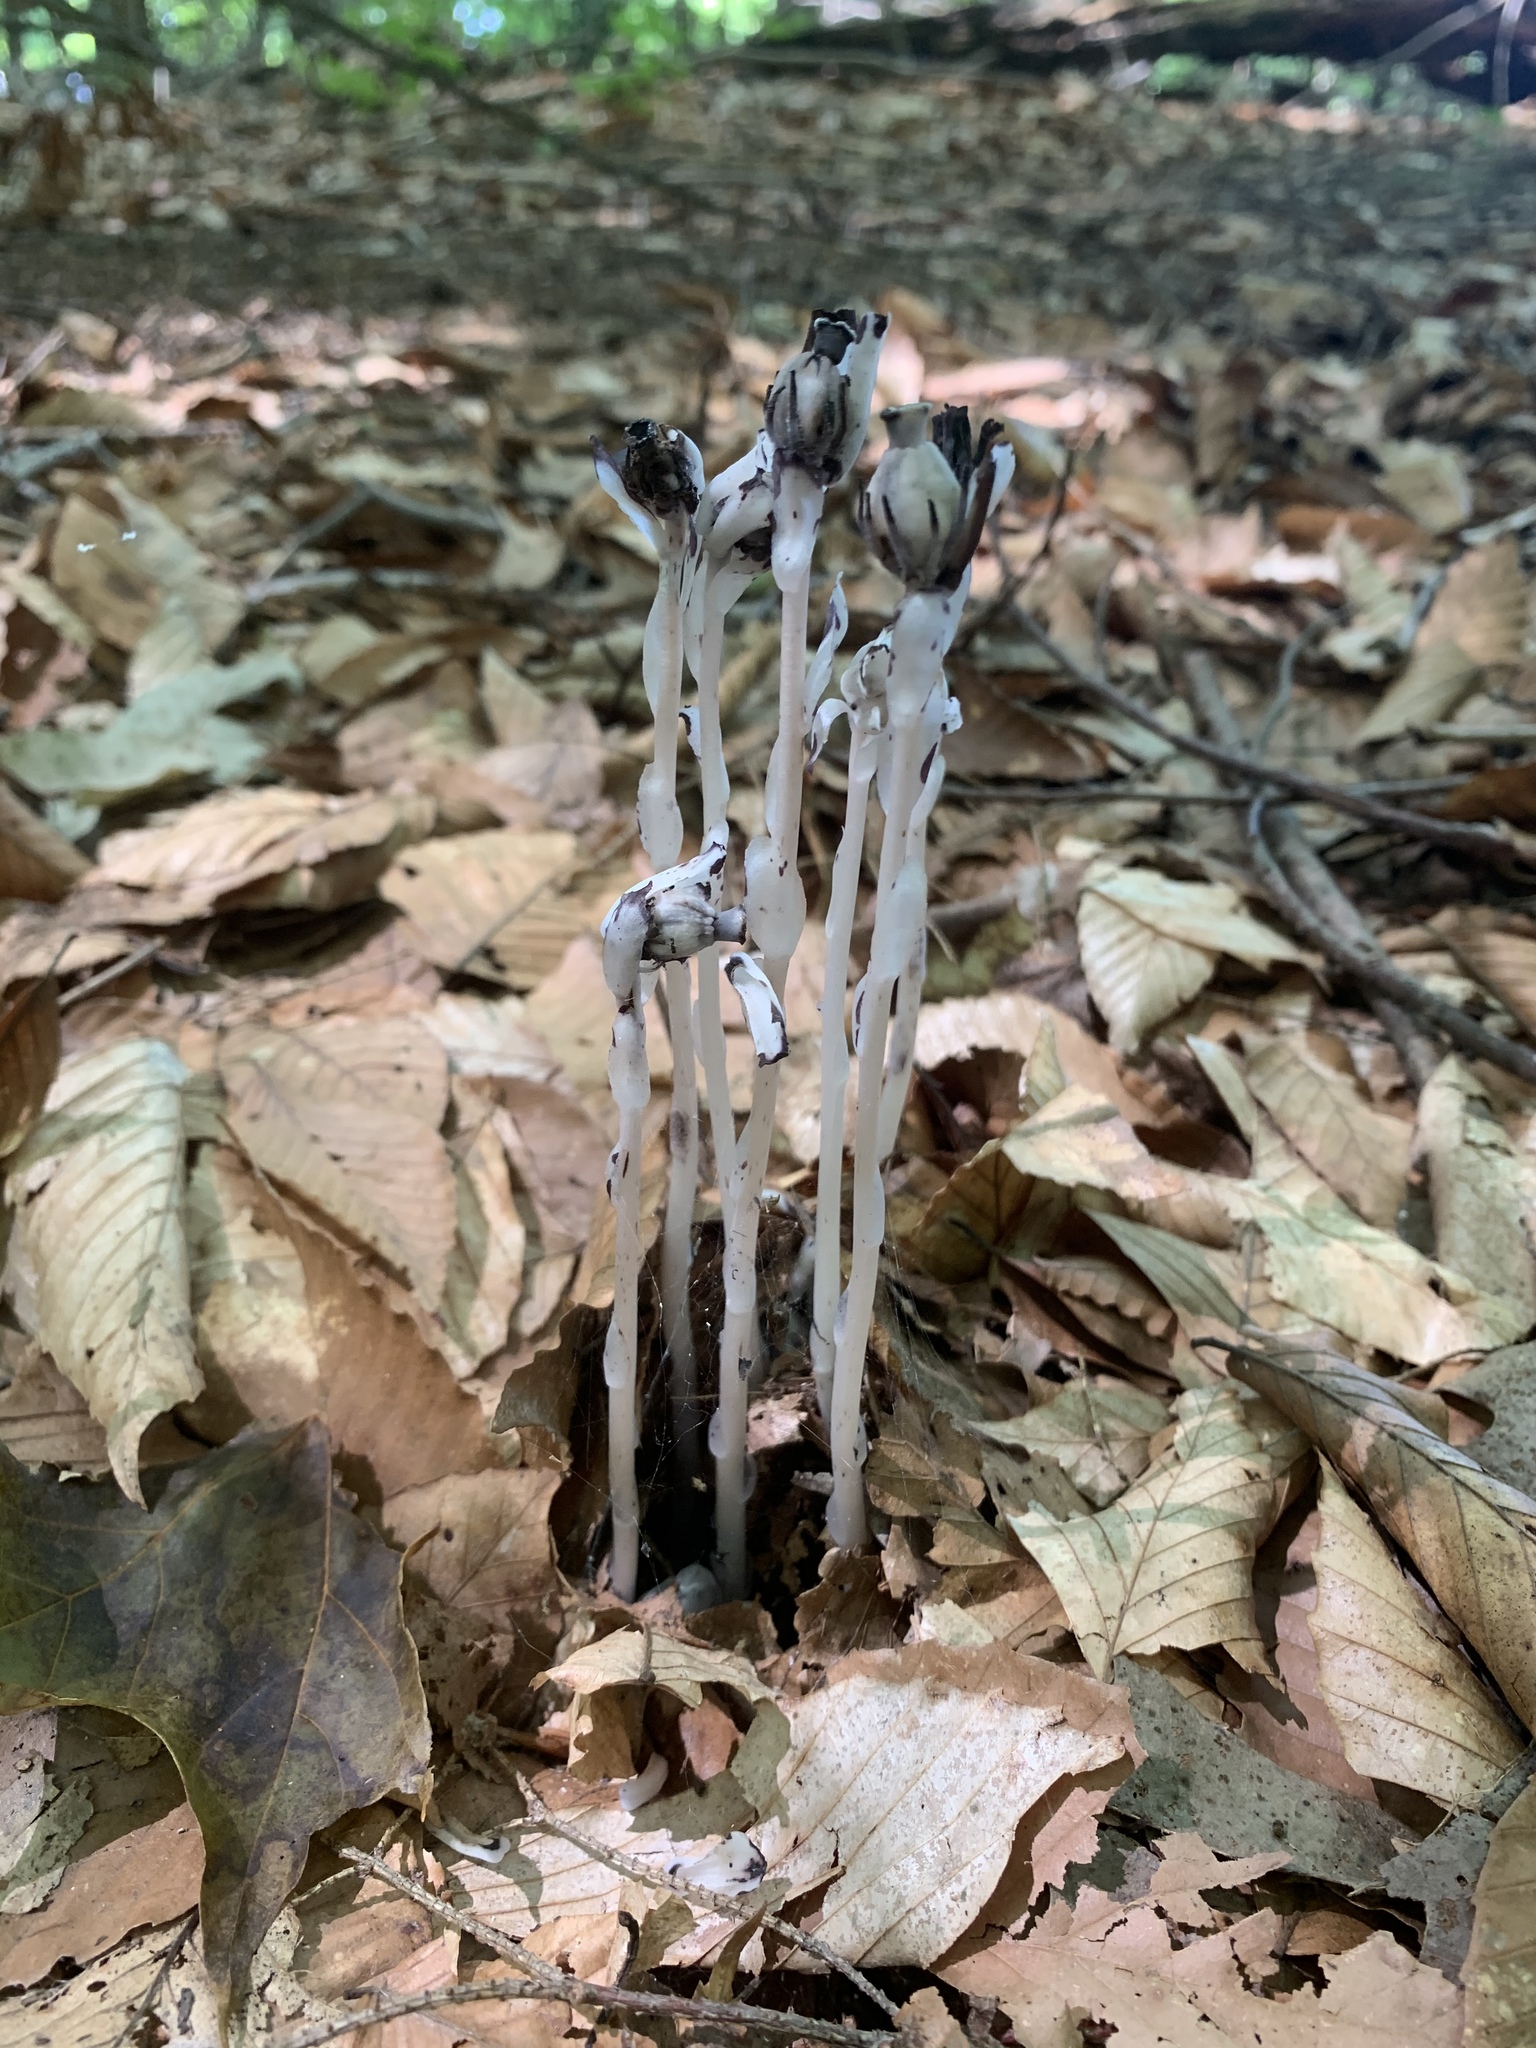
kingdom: Plantae
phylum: Tracheophyta
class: Magnoliopsida
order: Ericales
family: Ericaceae
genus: Monotropa
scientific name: Monotropa uniflora
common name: Convulsion root
